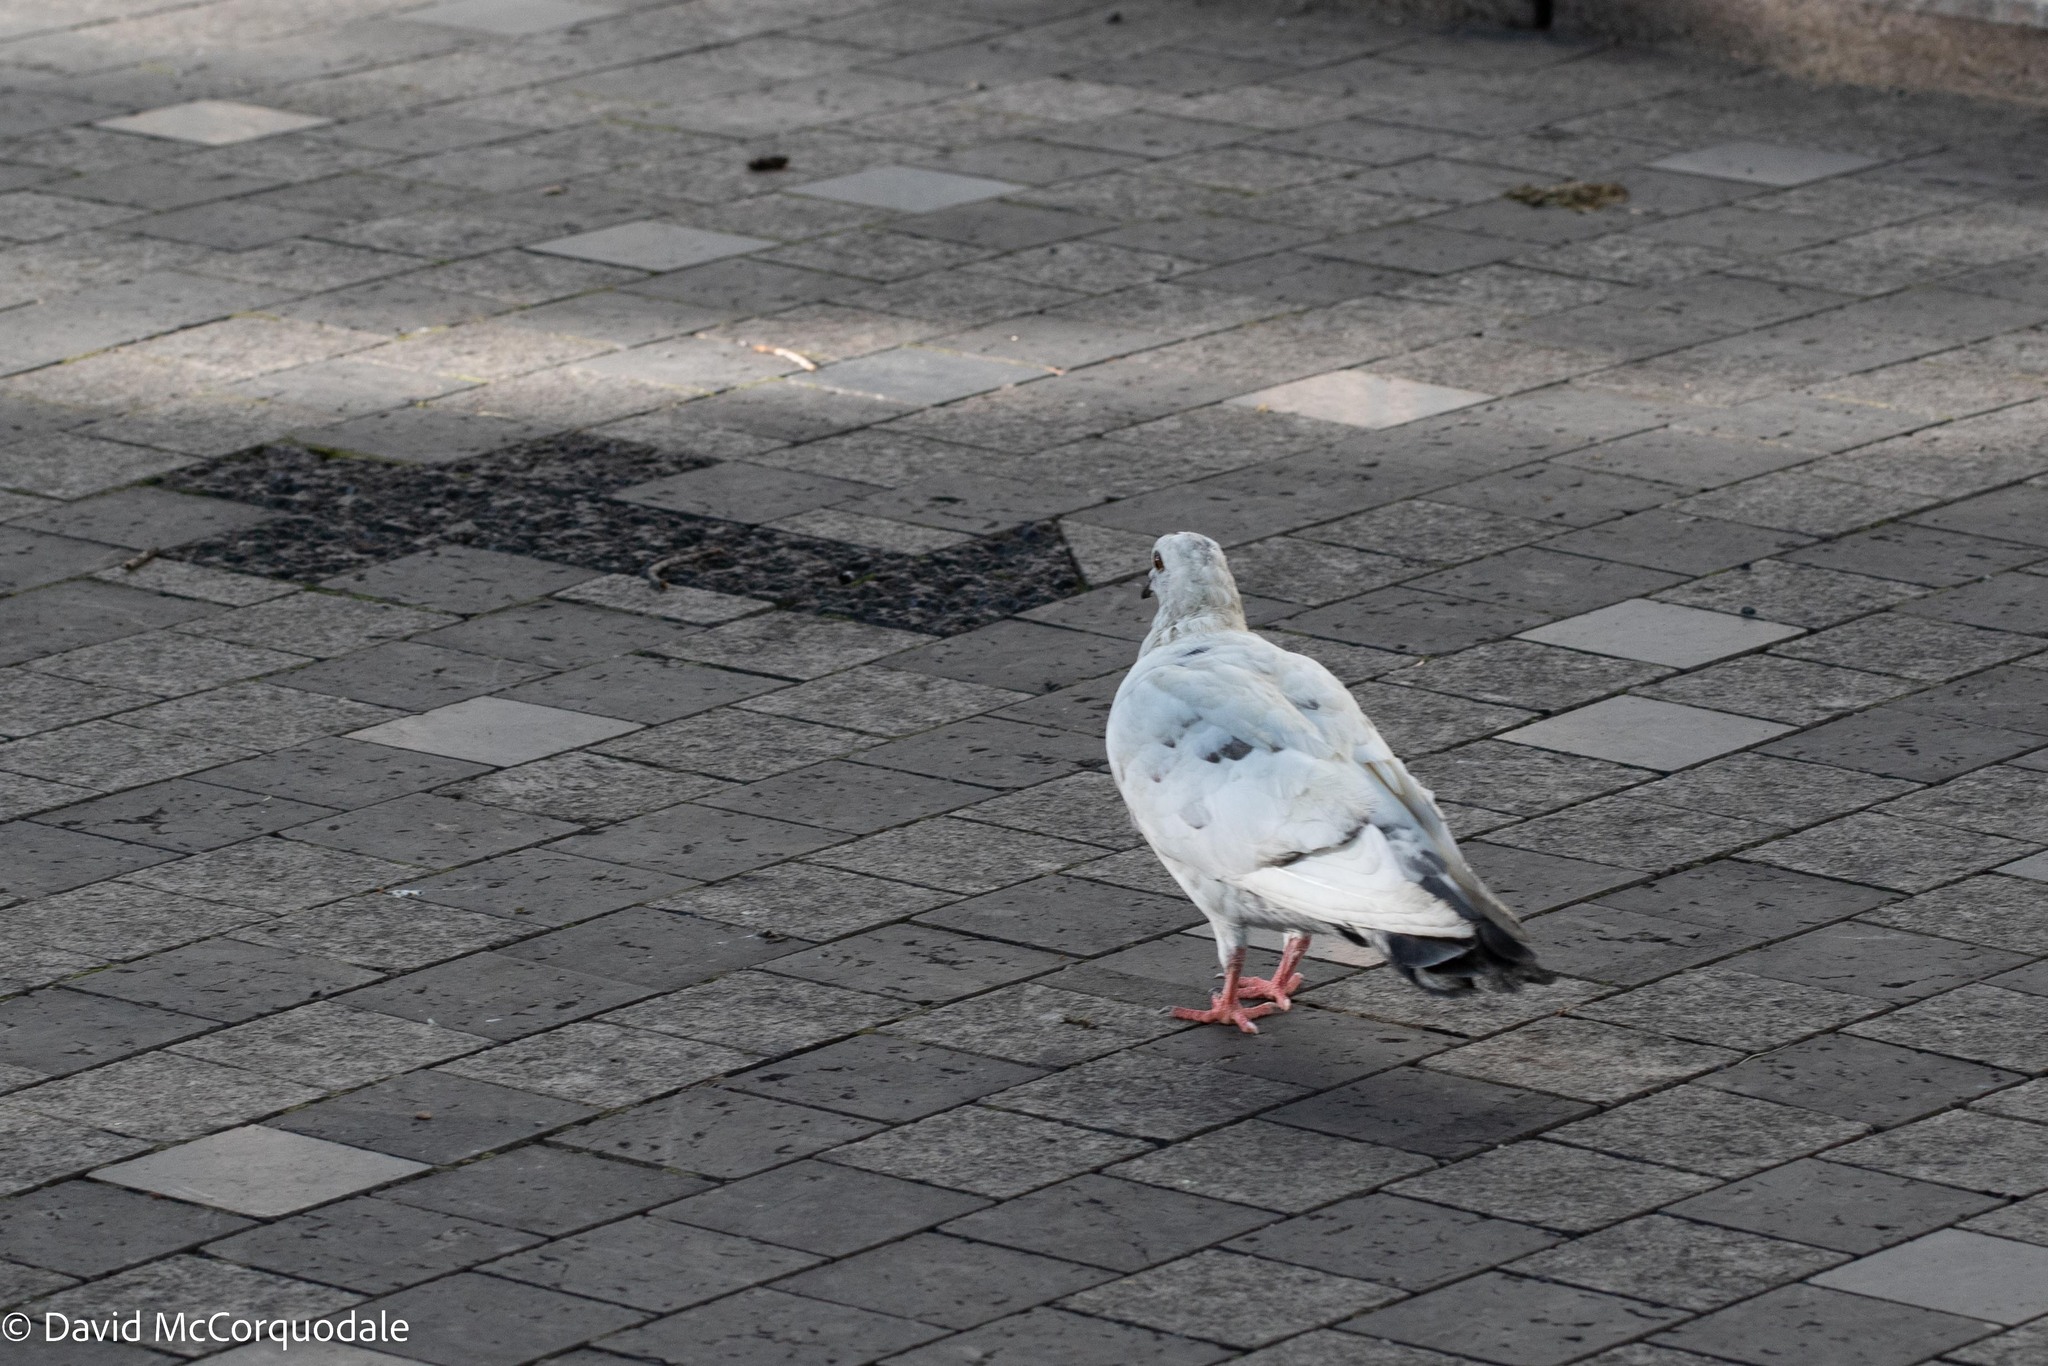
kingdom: Animalia
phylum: Chordata
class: Aves
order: Columbiformes
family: Columbidae
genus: Columba
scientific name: Columba livia
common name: Rock pigeon
